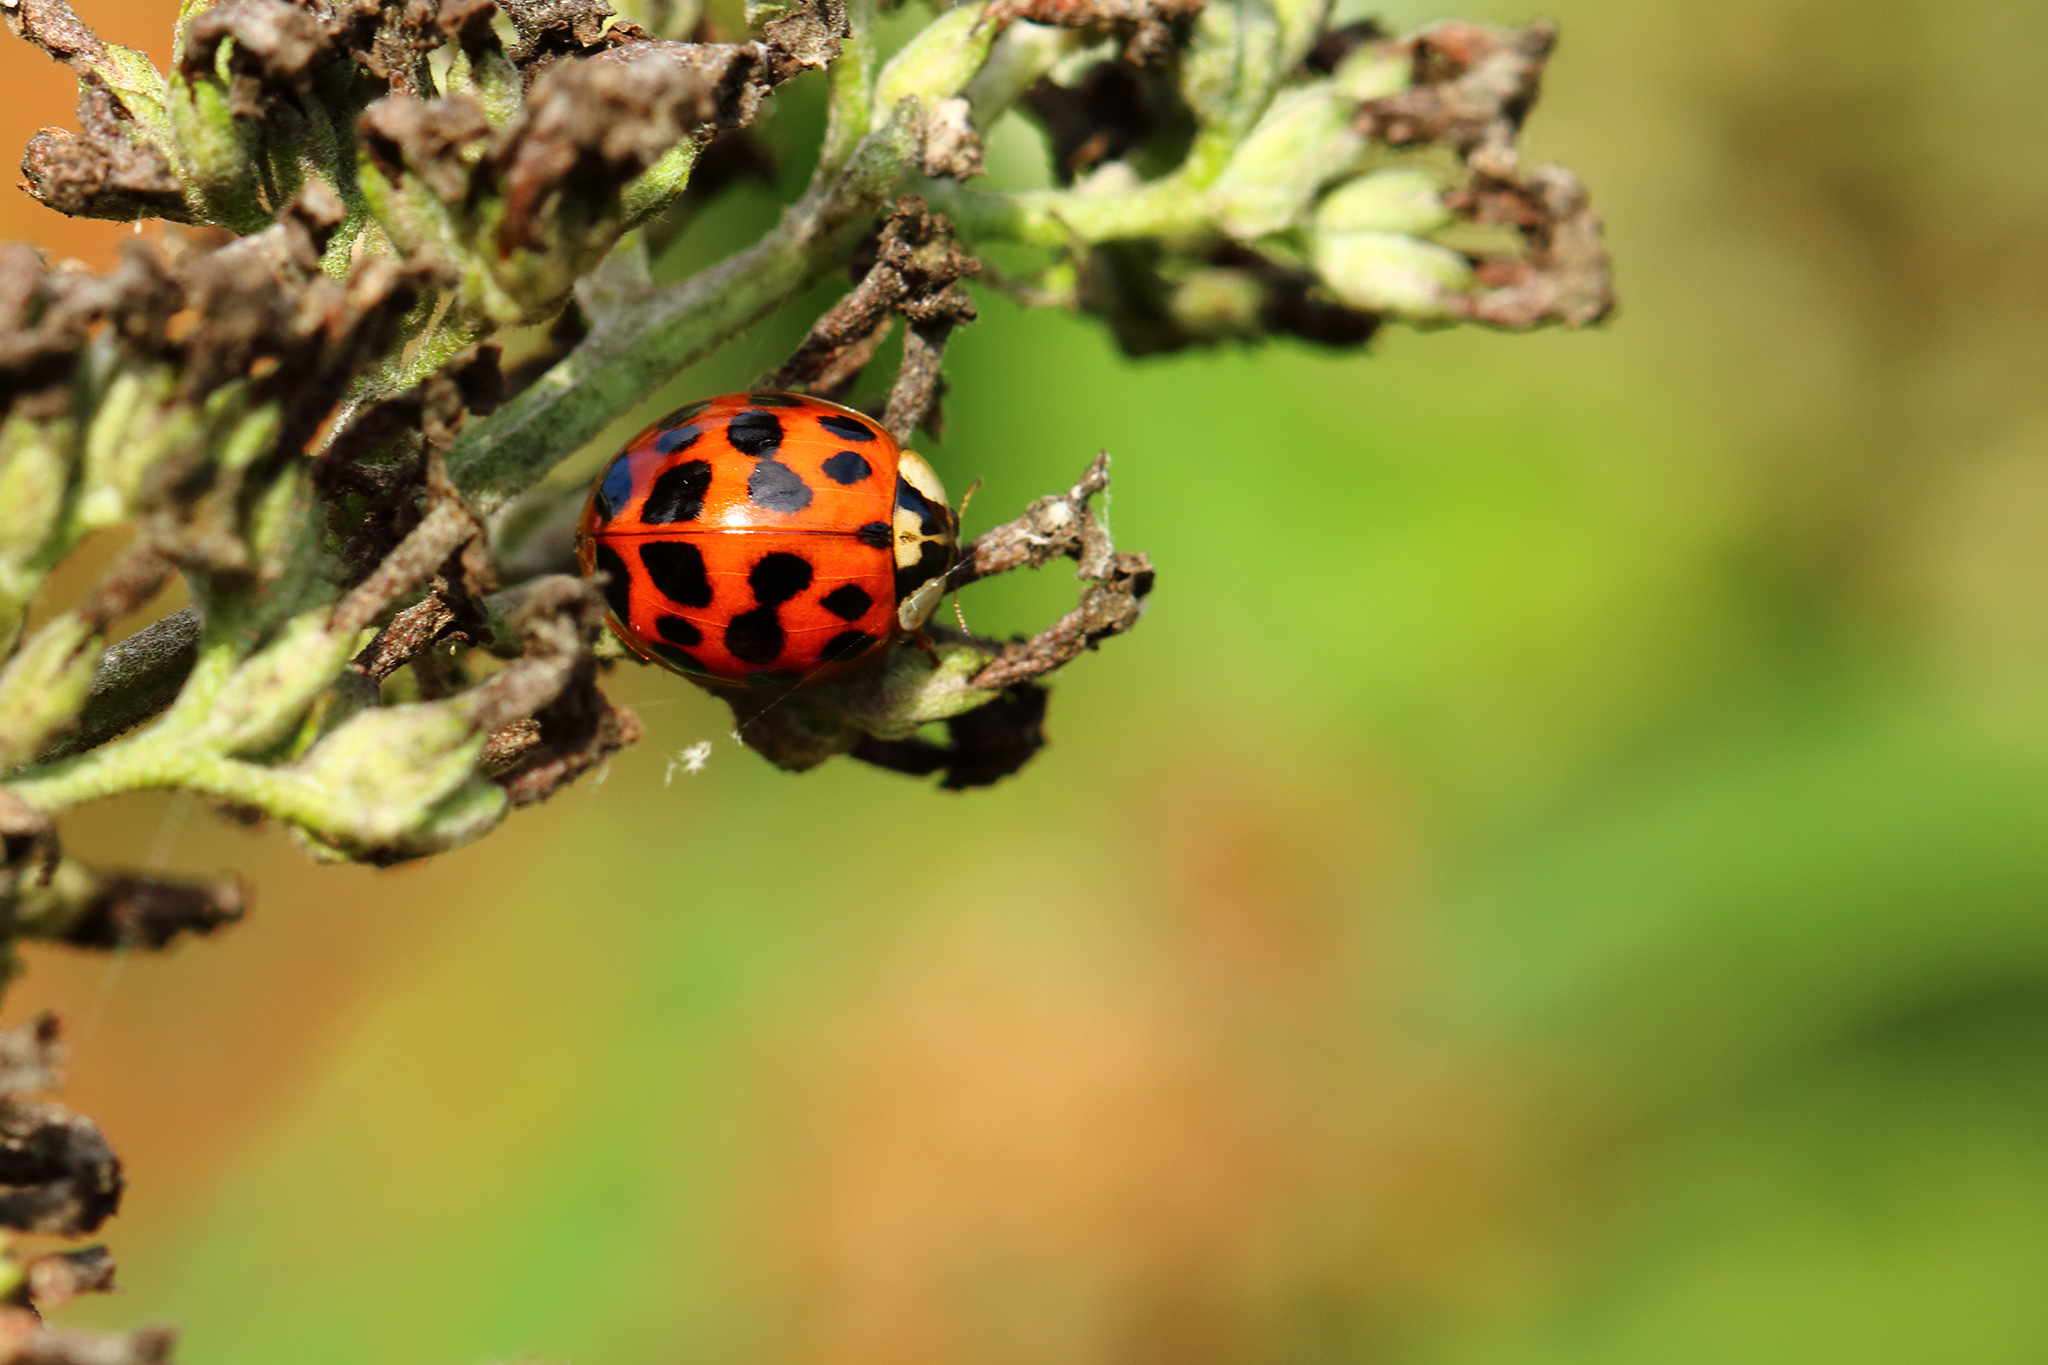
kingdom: Animalia
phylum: Arthropoda
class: Insecta
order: Coleoptera
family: Coccinellidae
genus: Harmonia
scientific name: Harmonia axyridis
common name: Harlequin ladybird
